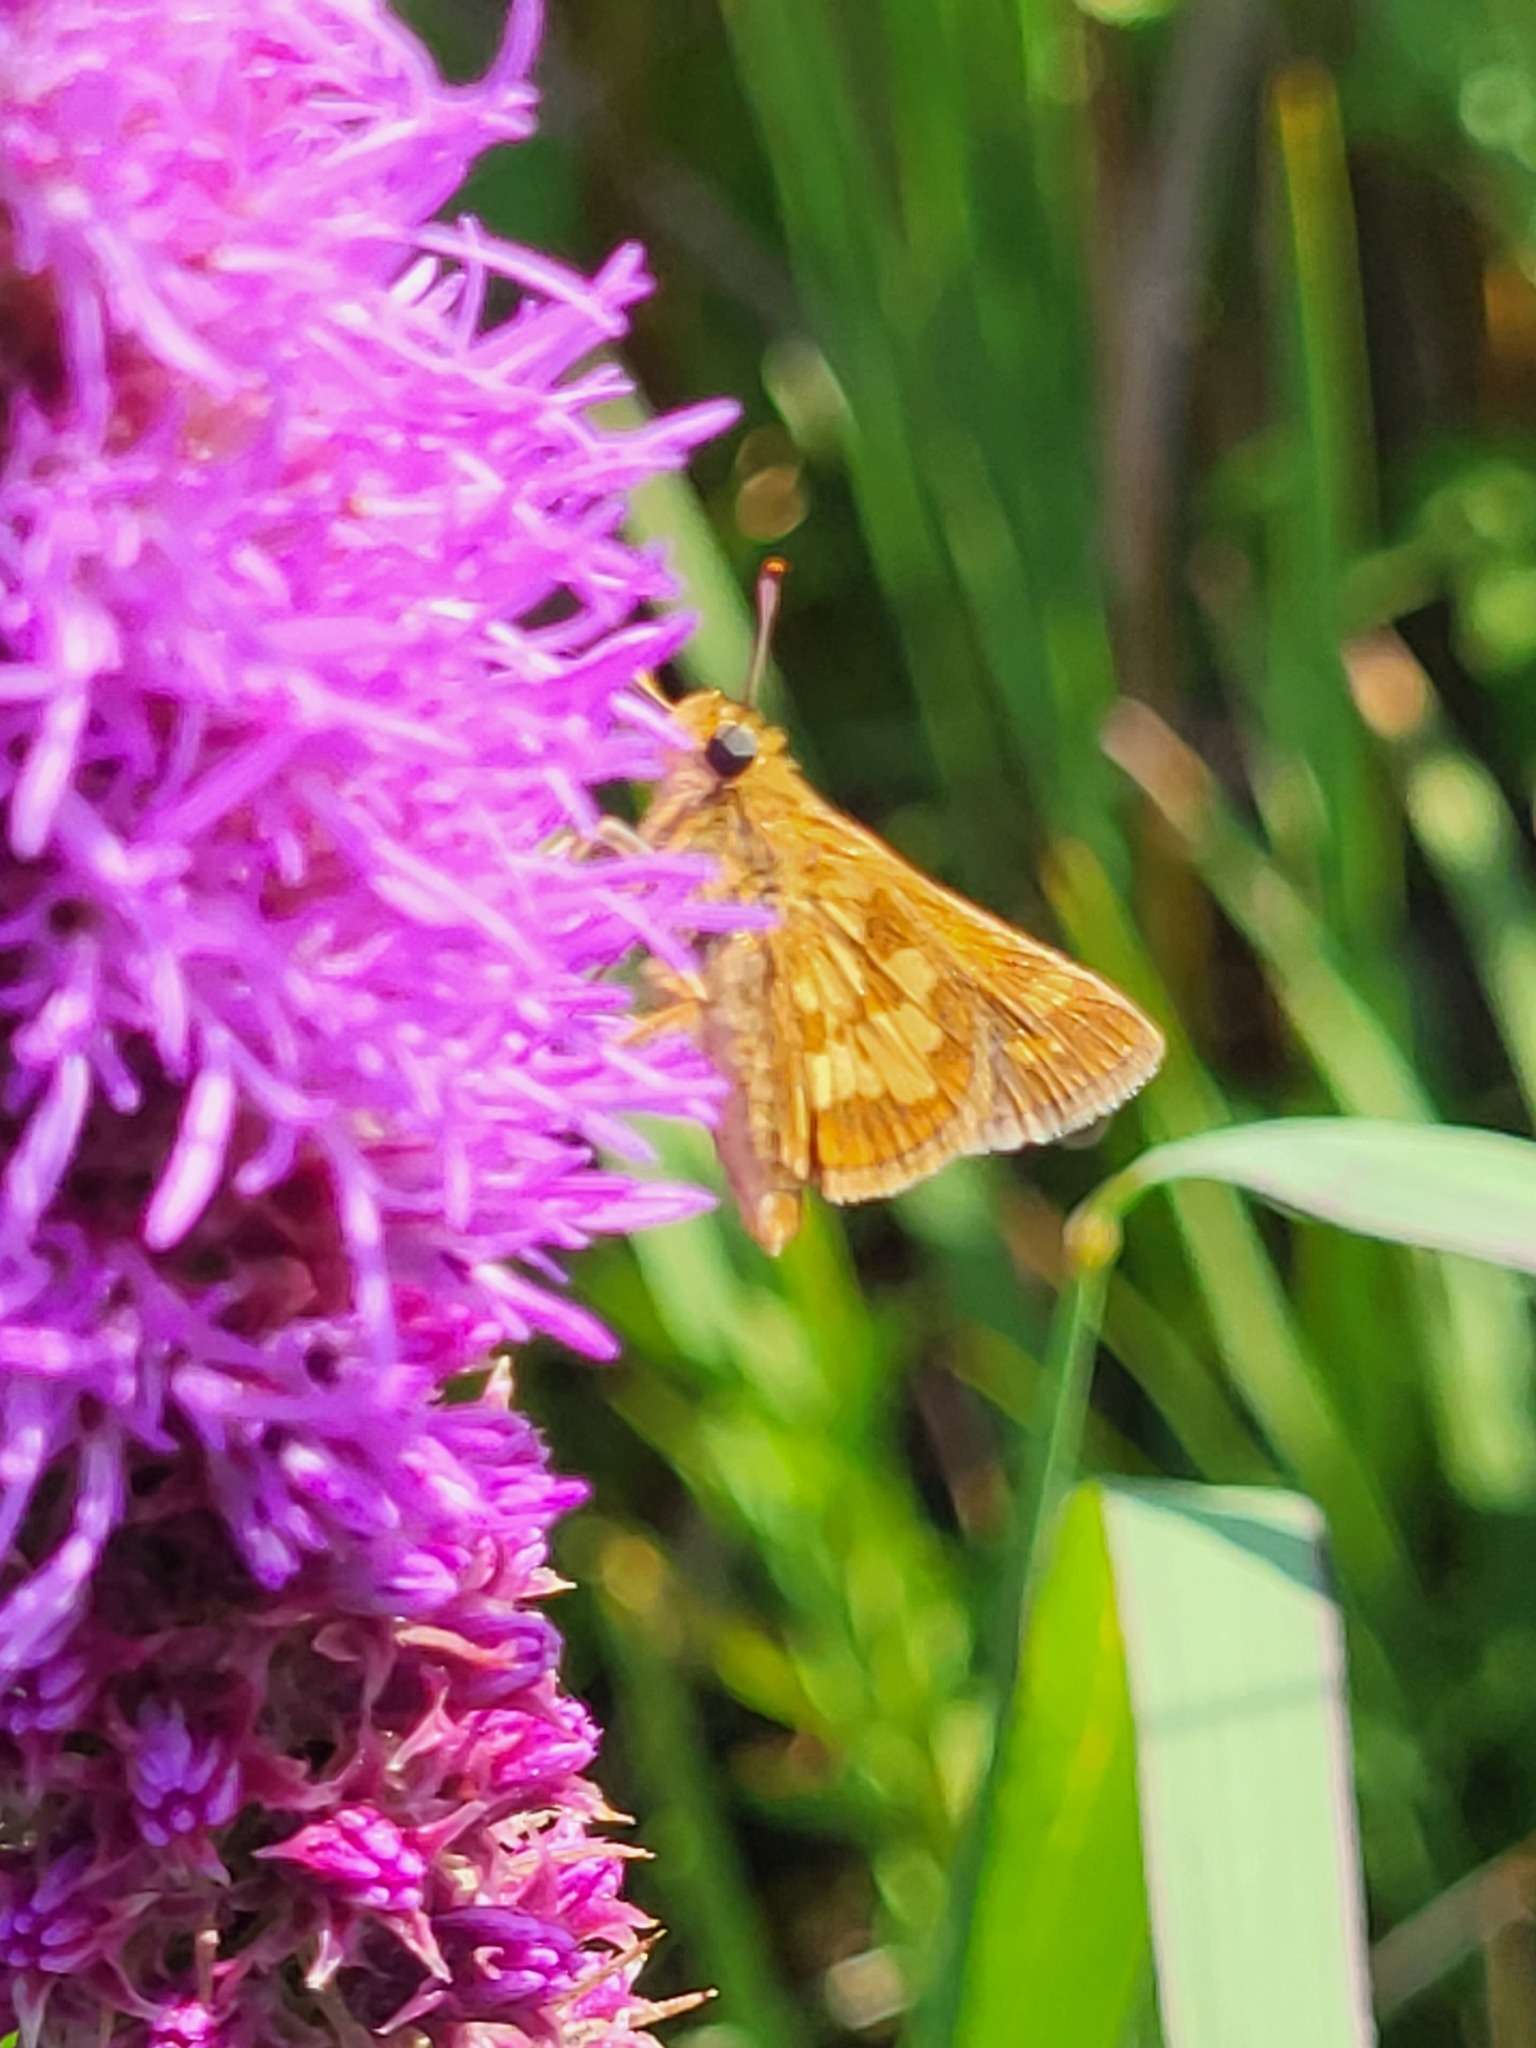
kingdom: Animalia
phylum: Arthropoda
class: Insecta
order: Lepidoptera
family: Hesperiidae
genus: Polites
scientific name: Polites coras
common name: Peck's skipper
